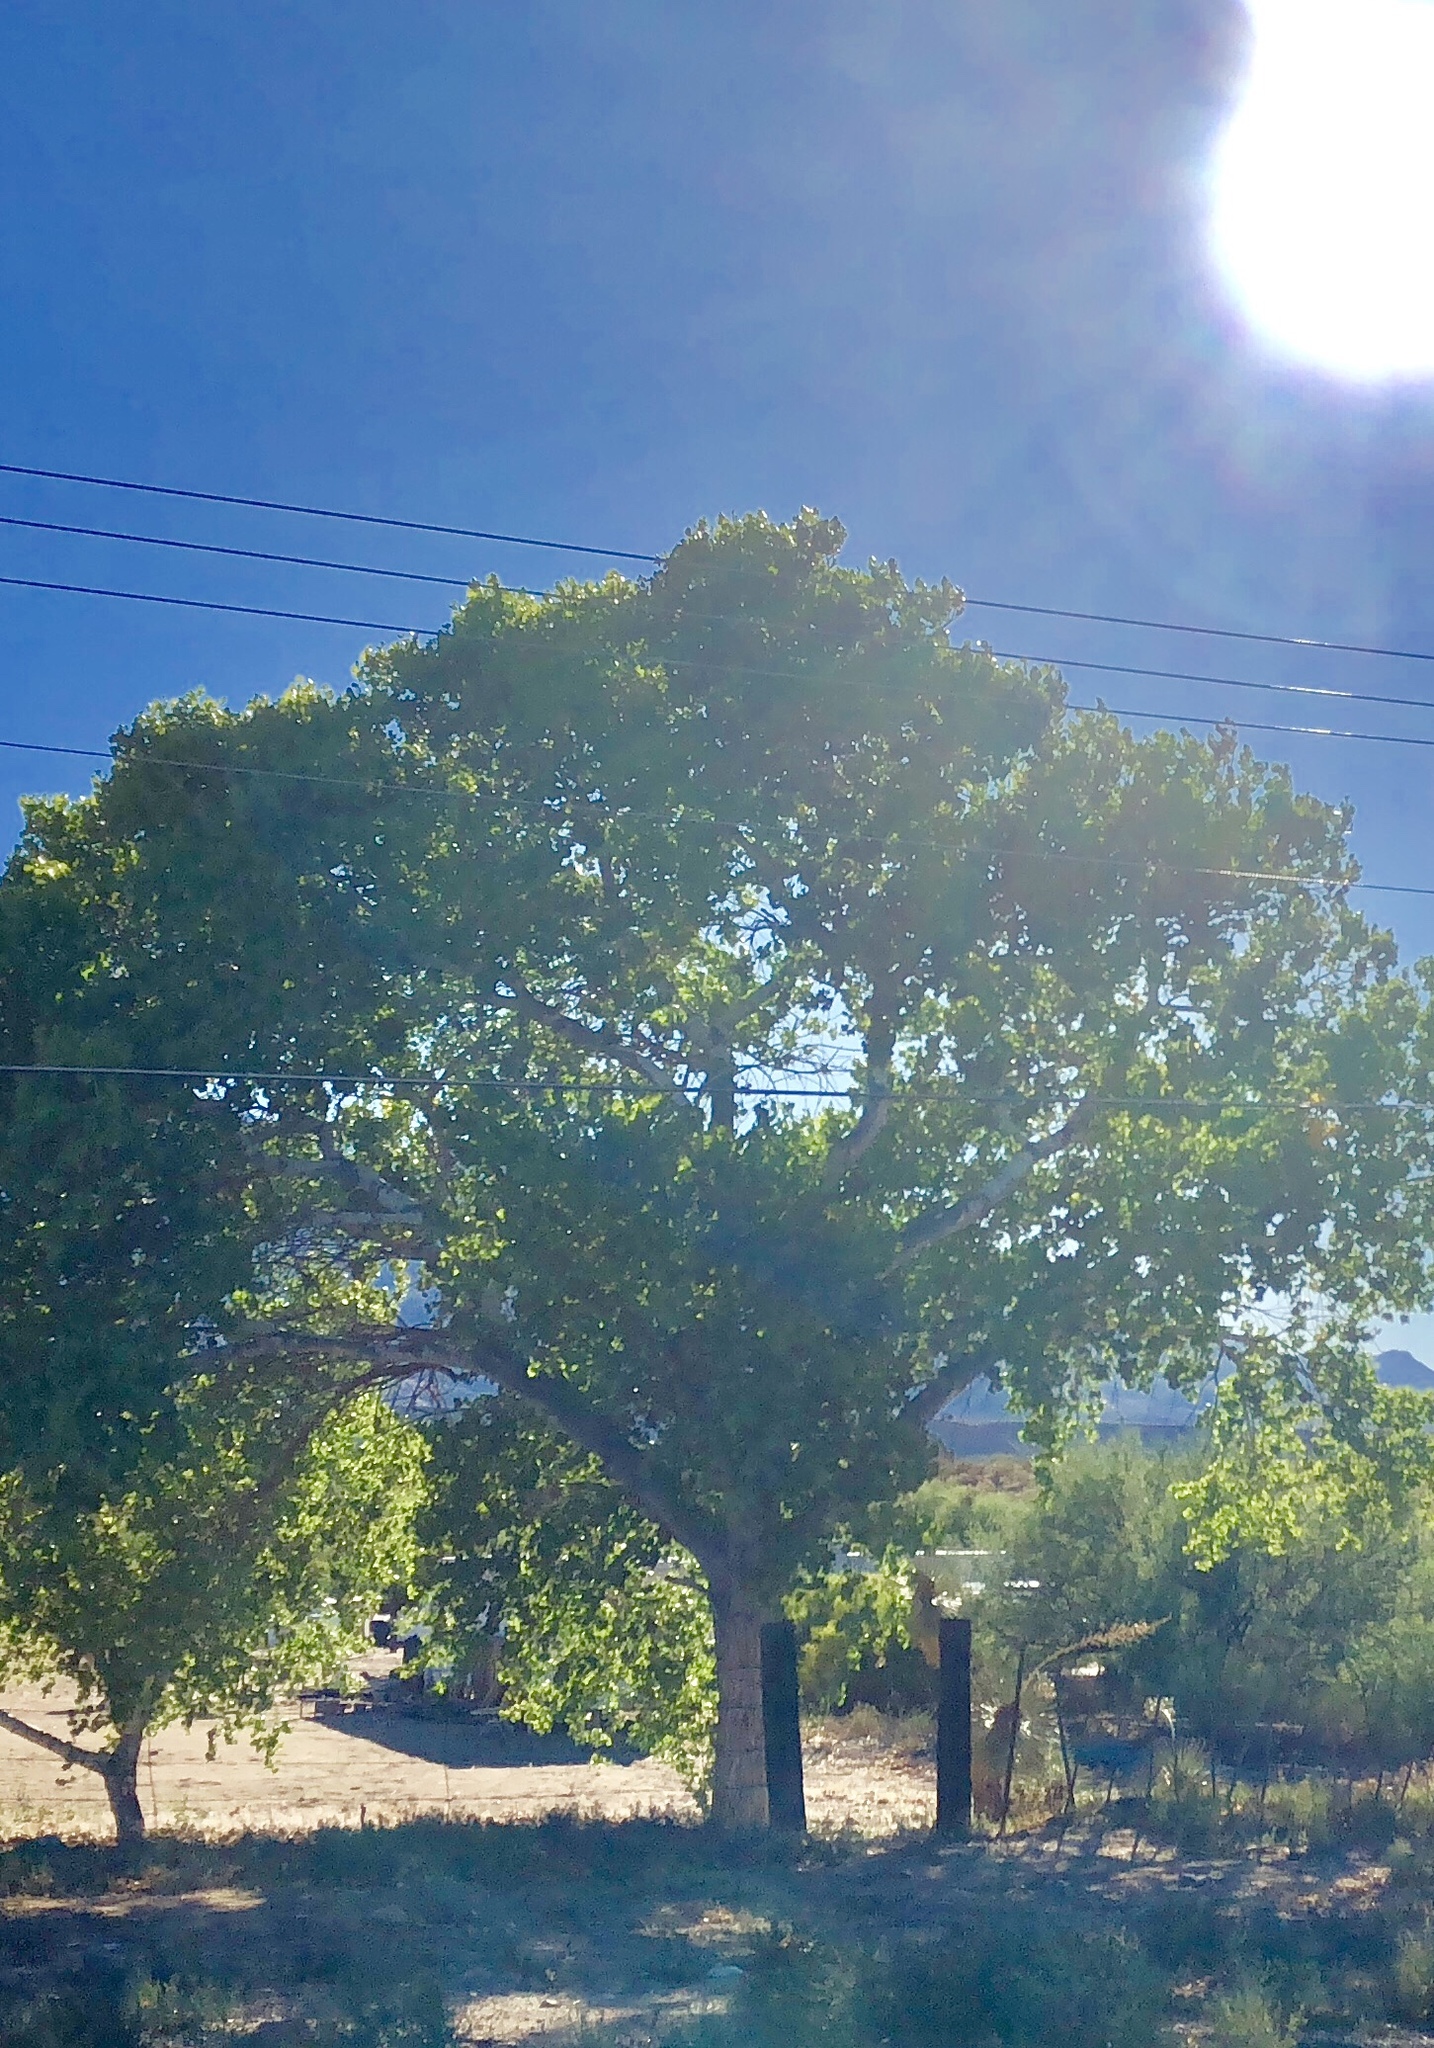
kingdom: Plantae
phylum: Tracheophyta
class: Magnoliopsida
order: Malpighiales
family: Salicaceae
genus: Populus
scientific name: Populus fremontii
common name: Fremont's cottonwood
